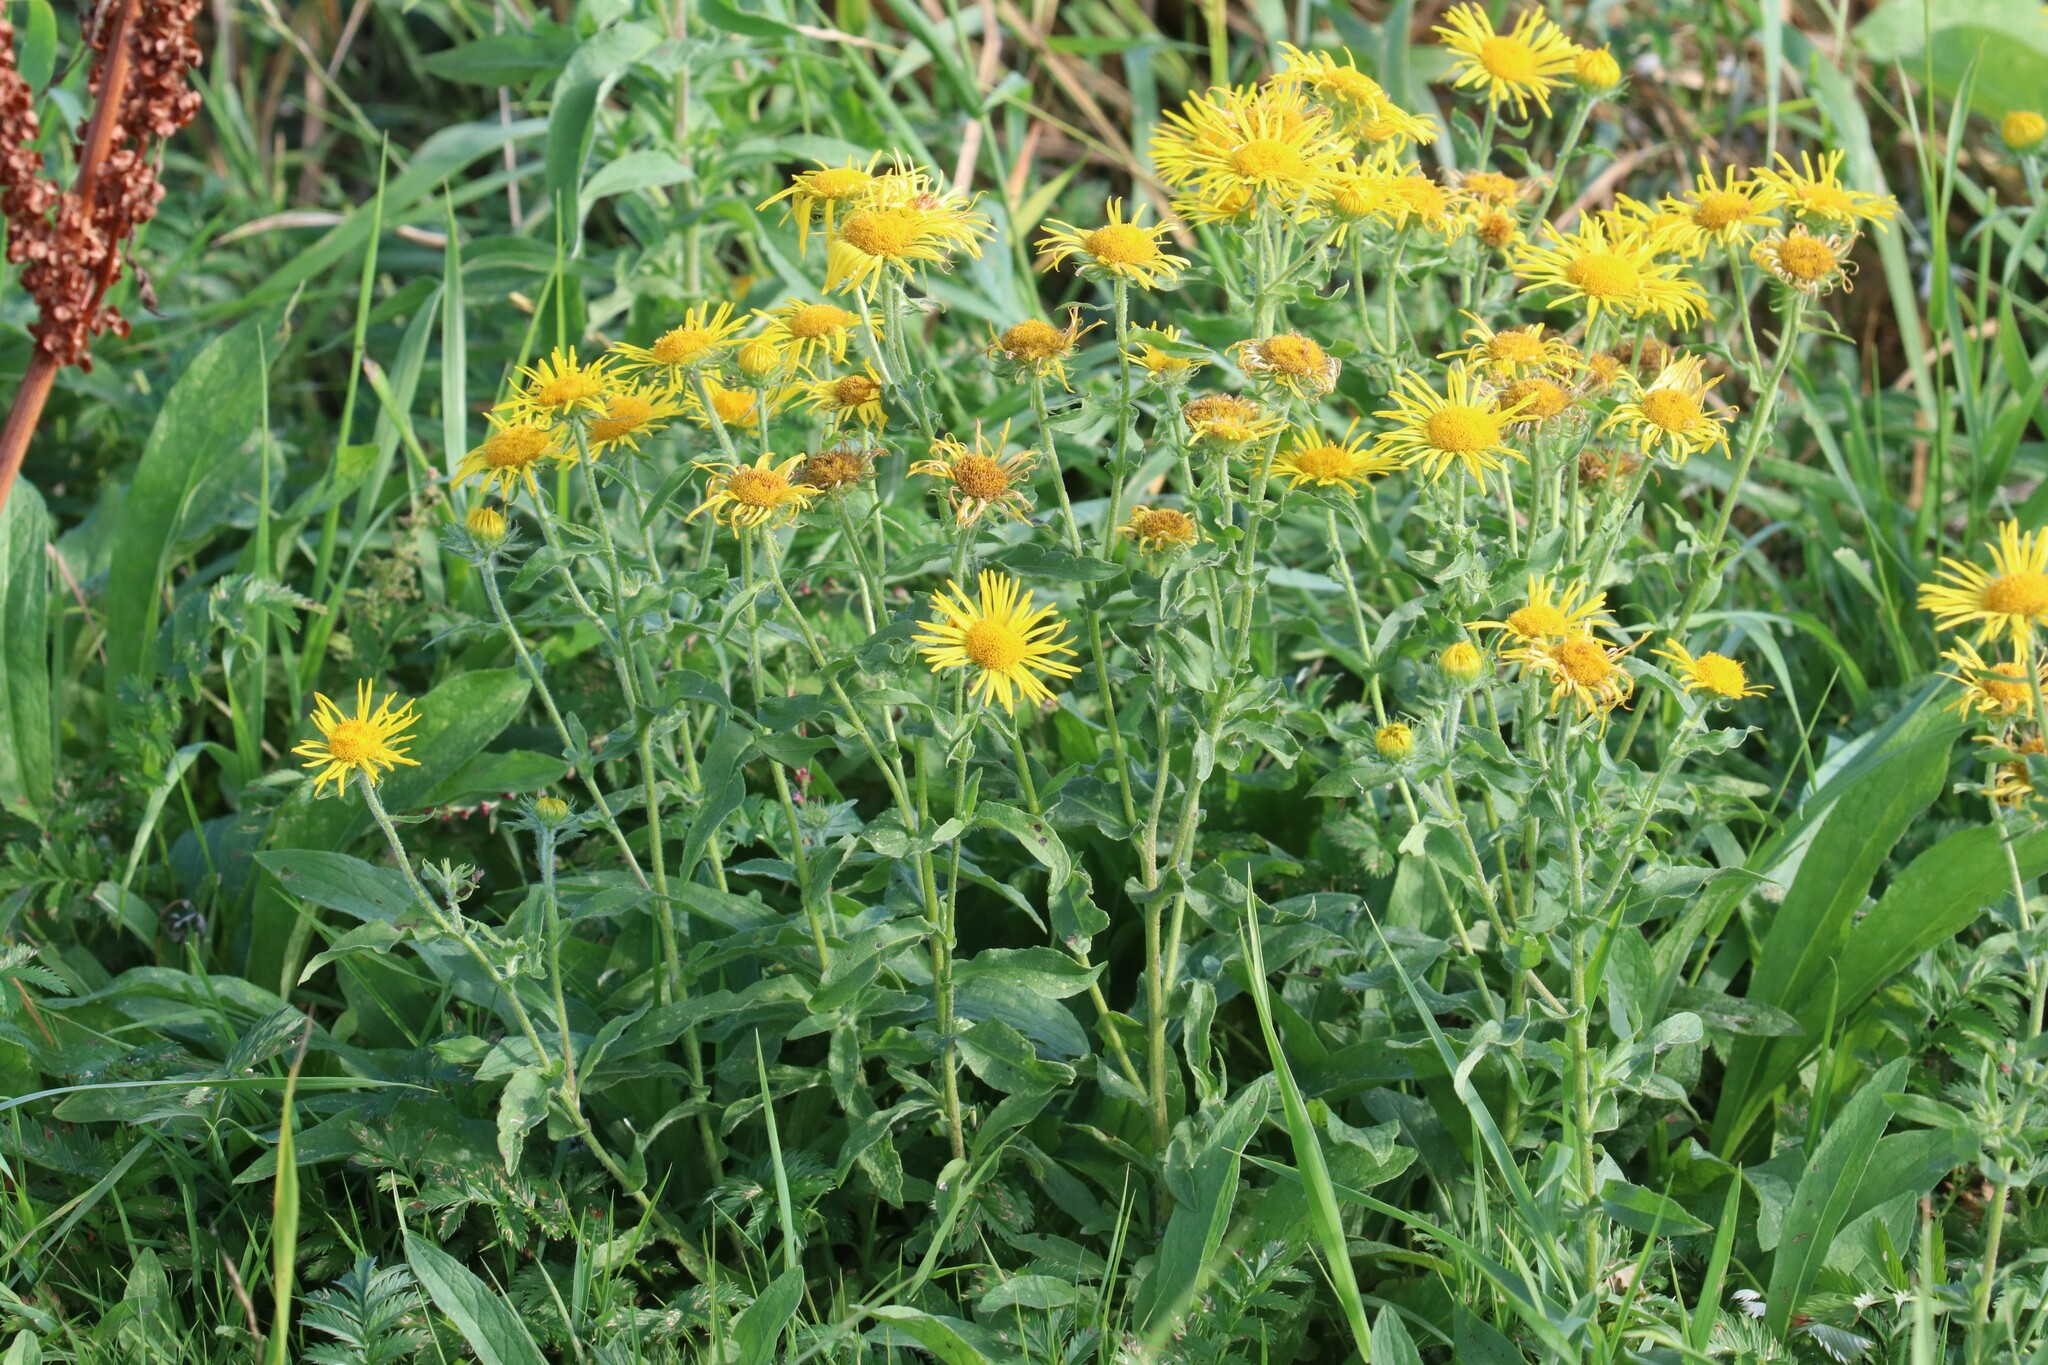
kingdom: Plantae
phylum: Tracheophyta
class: Magnoliopsida
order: Asterales
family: Asteraceae
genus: Pentanema
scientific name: Pentanema britannicum
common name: British elecampane
